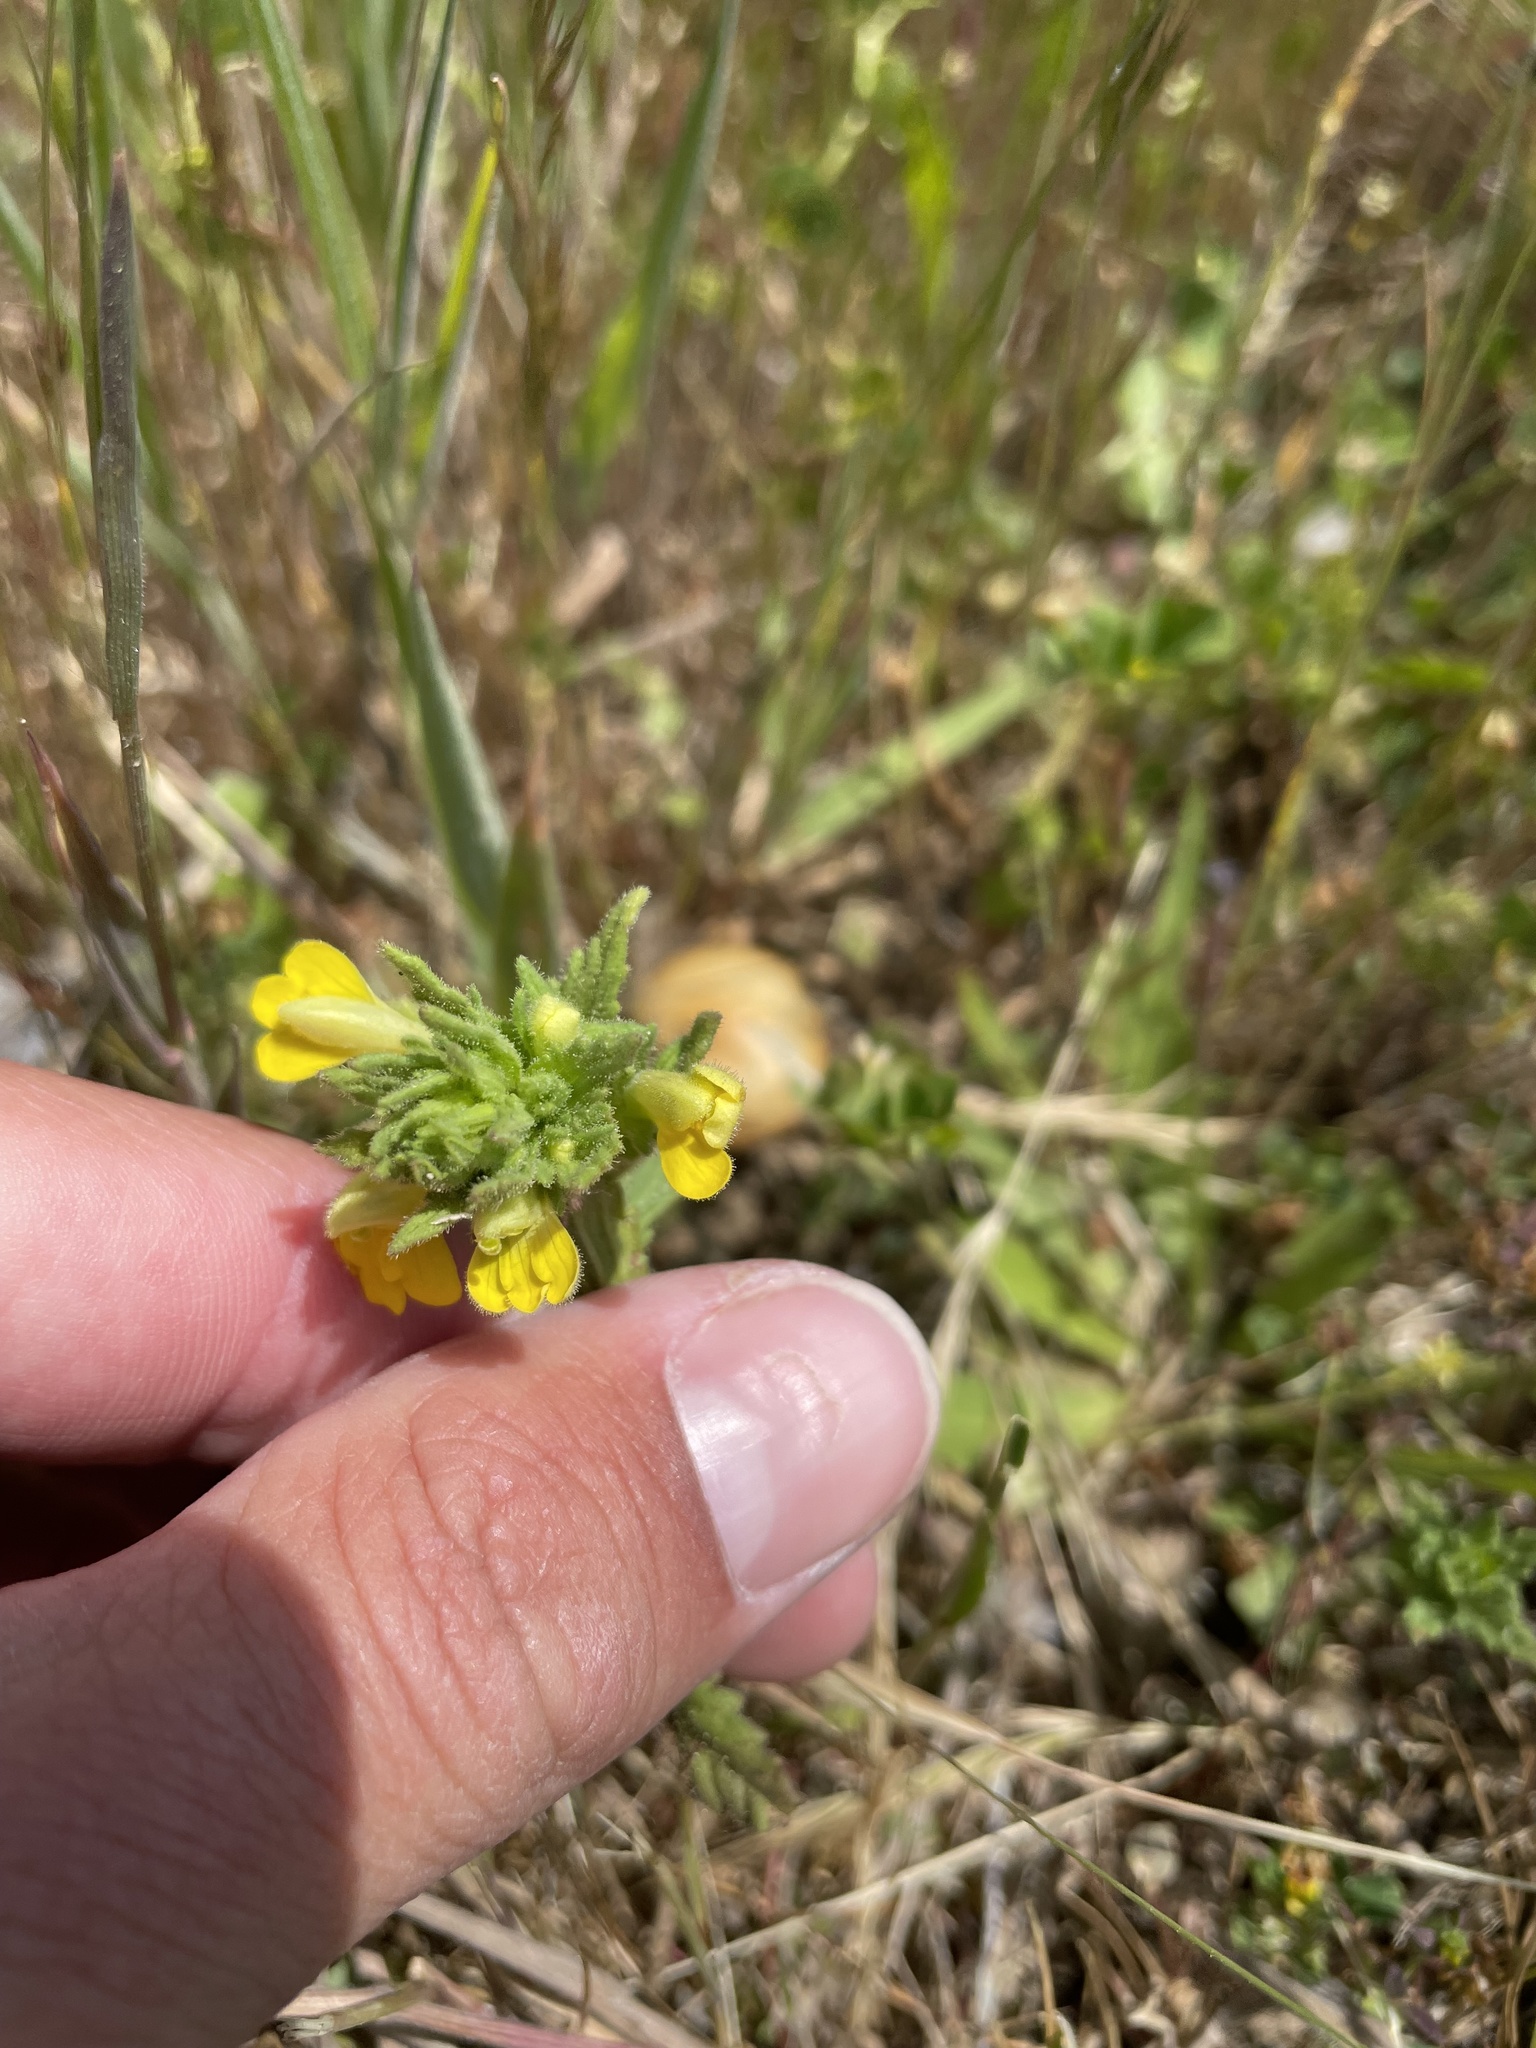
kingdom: Plantae
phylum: Tracheophyta
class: Magnoliopsida
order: Lamiales
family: Orobanchaceae
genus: Bellardia
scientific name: Bellardia viscosa
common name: Sticky parentucellia
